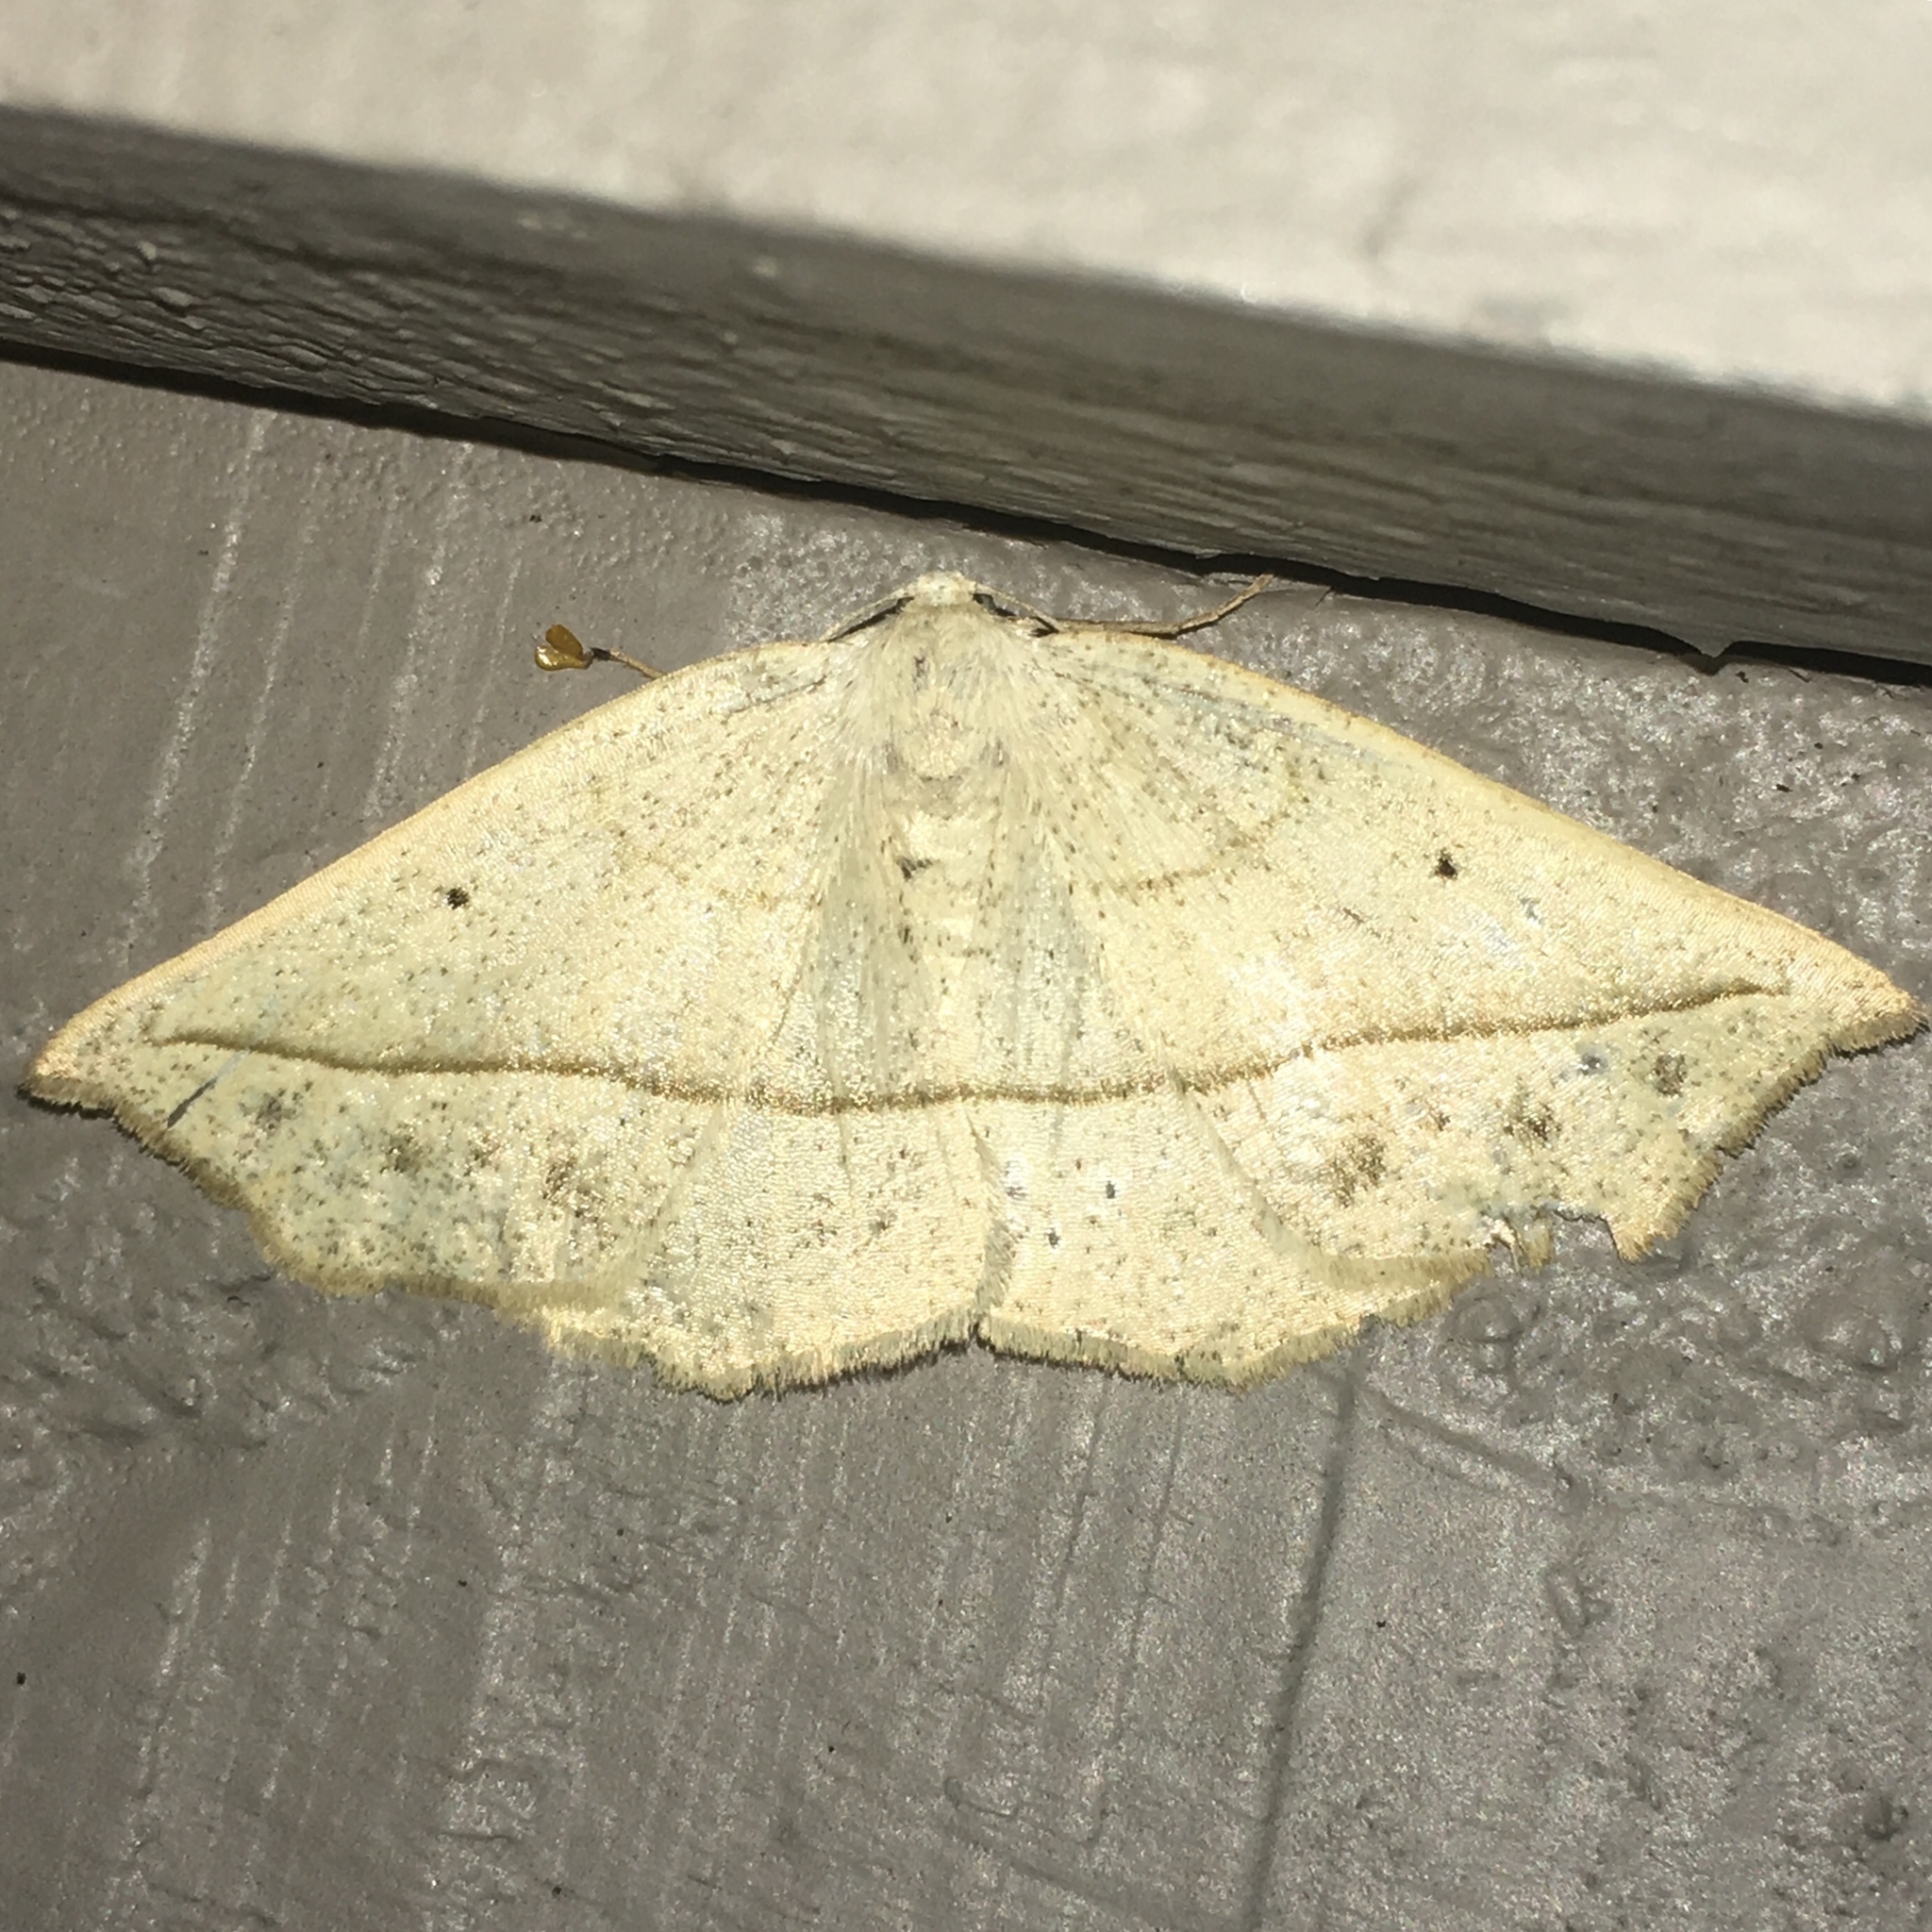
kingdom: Animalia
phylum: Arthropoda
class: Insecta
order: Lepidoptera
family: Geometridae
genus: Eusarca
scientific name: Eusarca confusaria
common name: Confused eusarca
